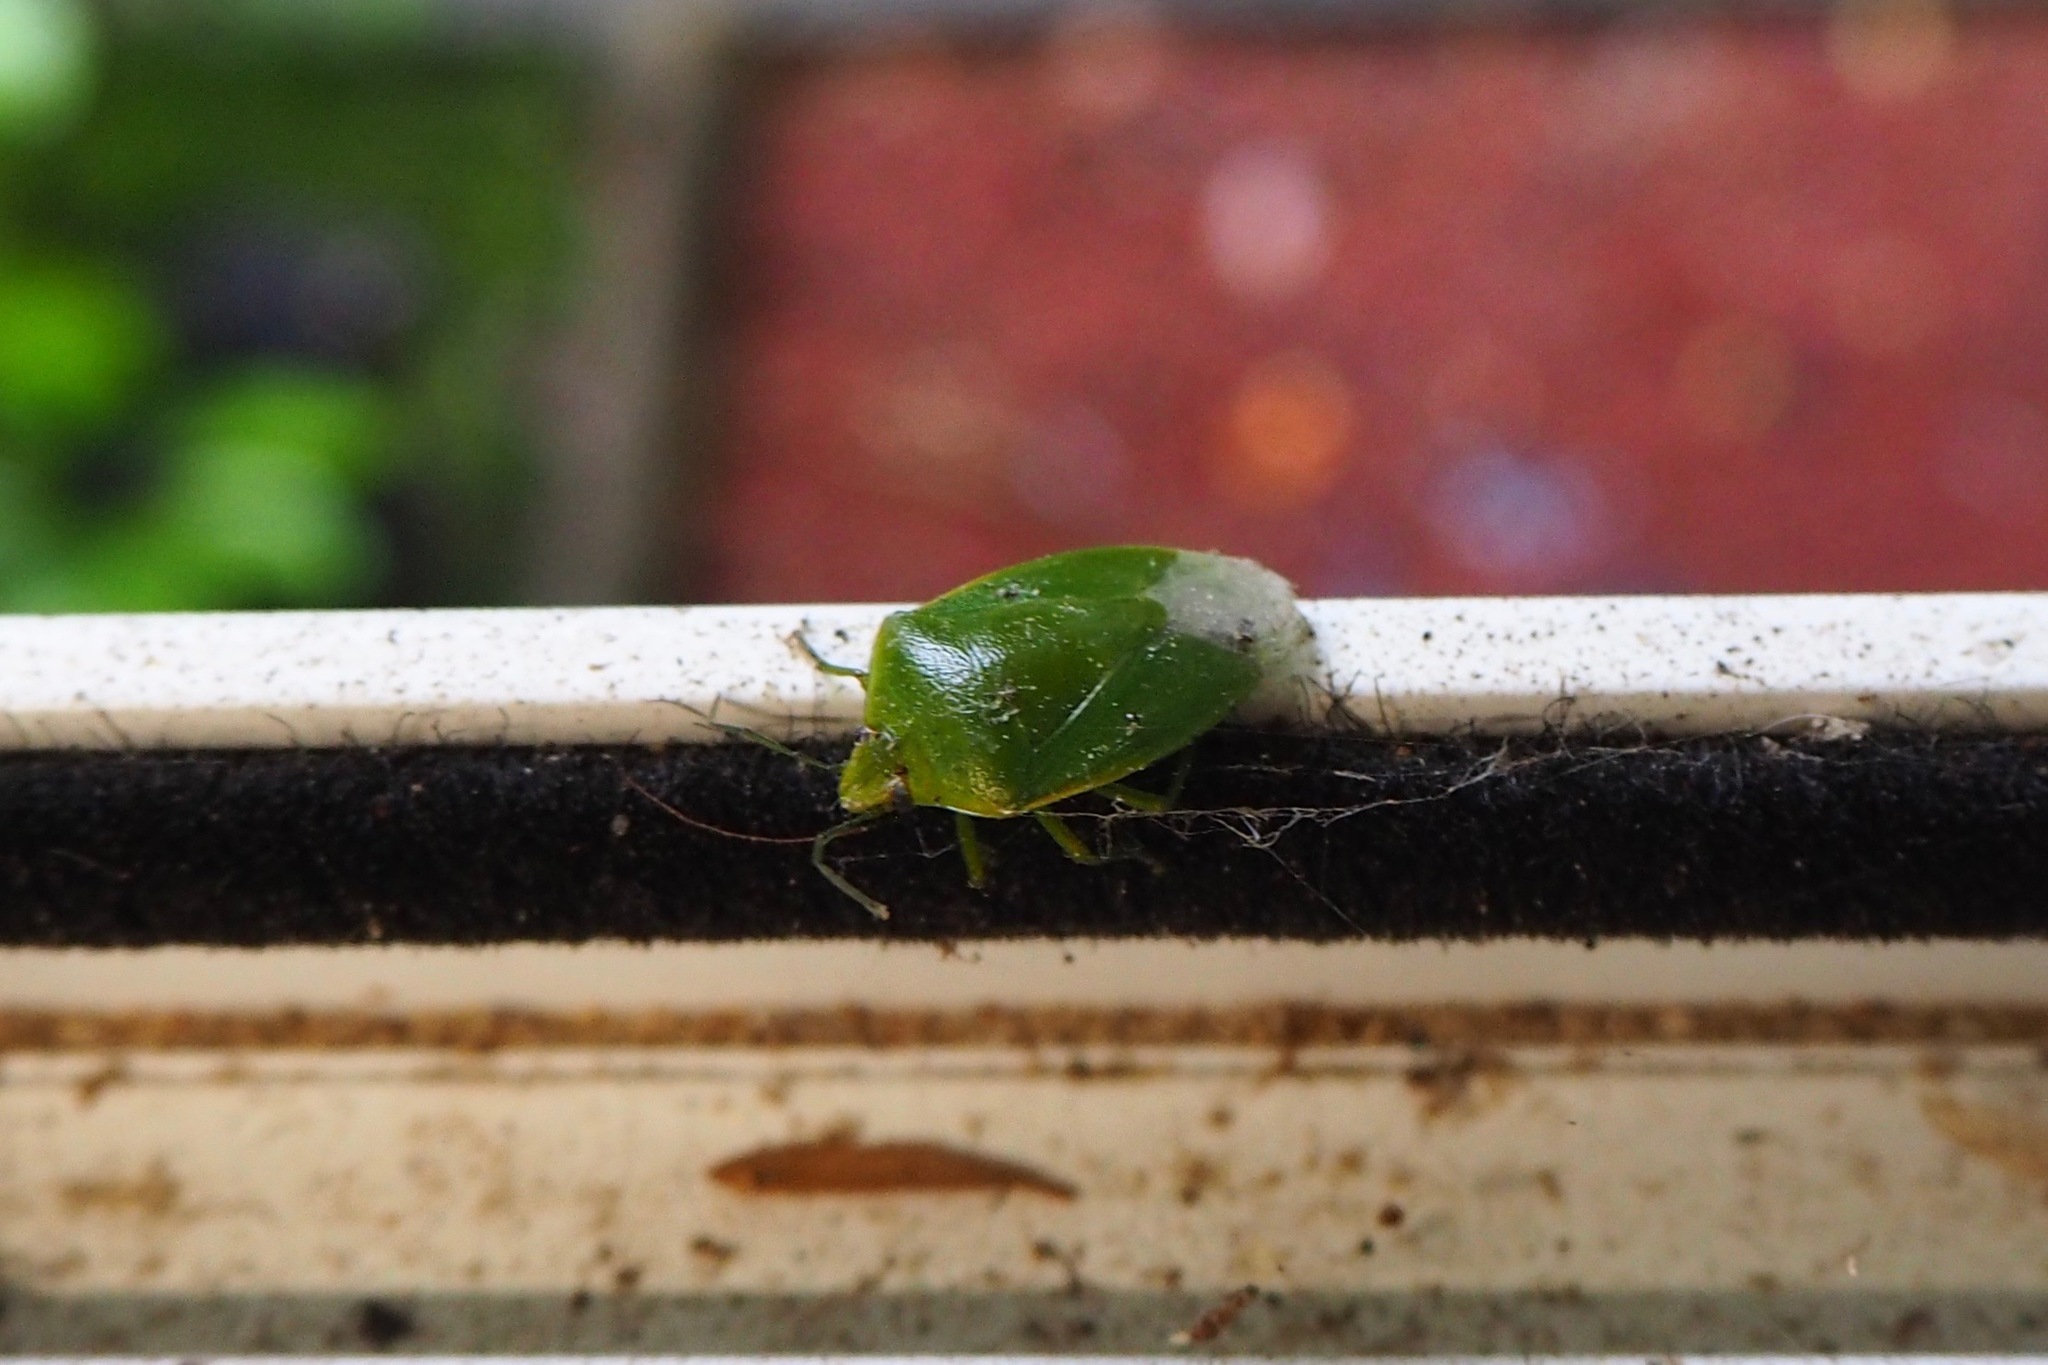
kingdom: Animalia
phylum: Arthropoda
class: Insecta
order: Hemiptera
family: Pentatomidae
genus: Glaucias
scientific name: Glaucias amyota
